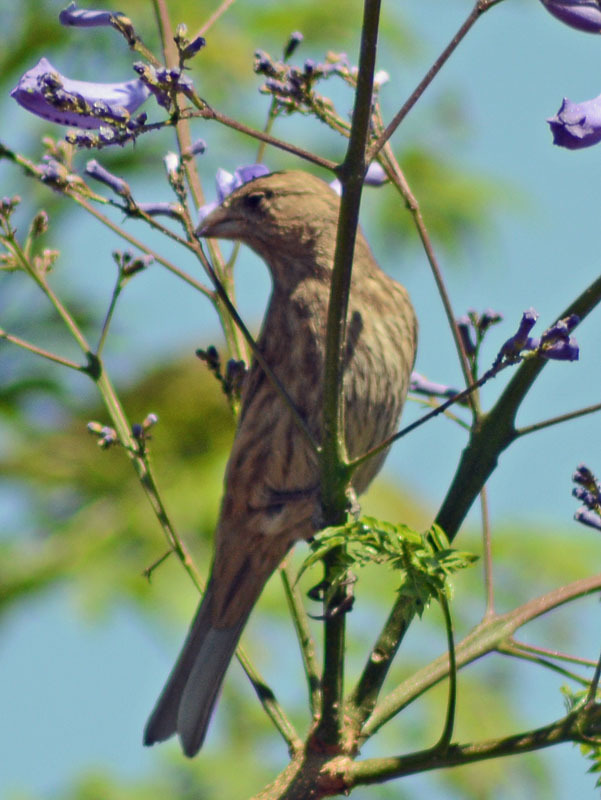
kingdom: Animalia
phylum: Chordata
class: Aves
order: Passeriformes
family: Fringillidae
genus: Haemorhous
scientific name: Haemorhous mexicanus
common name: House finch
